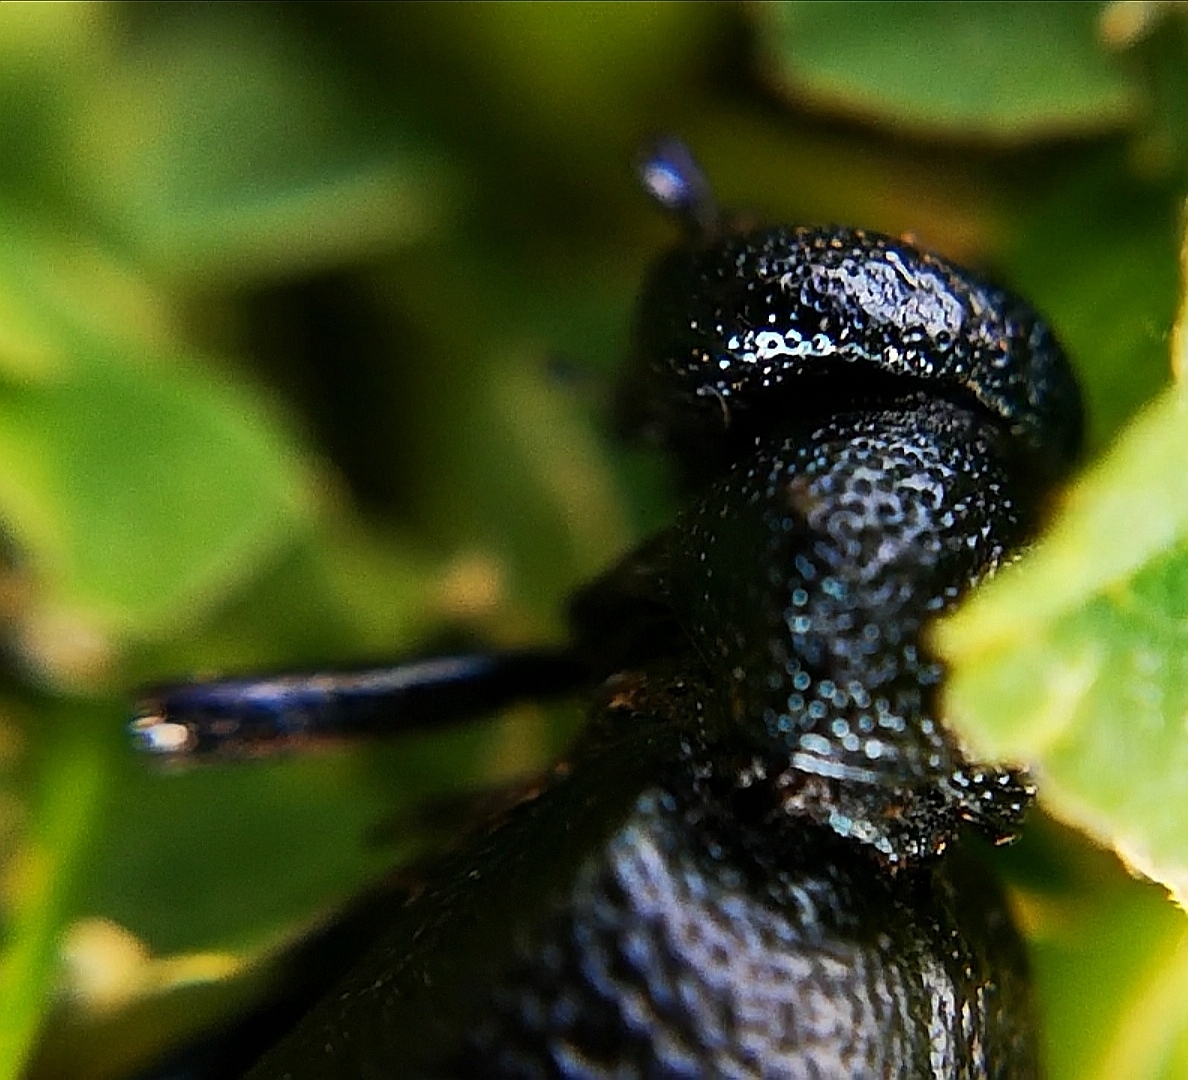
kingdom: Animalia
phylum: Arthropoda
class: Insecta
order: Coleoptera
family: Meloidae
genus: Meloe
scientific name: Meloe proscarabaeus
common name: Black oil-beetle
